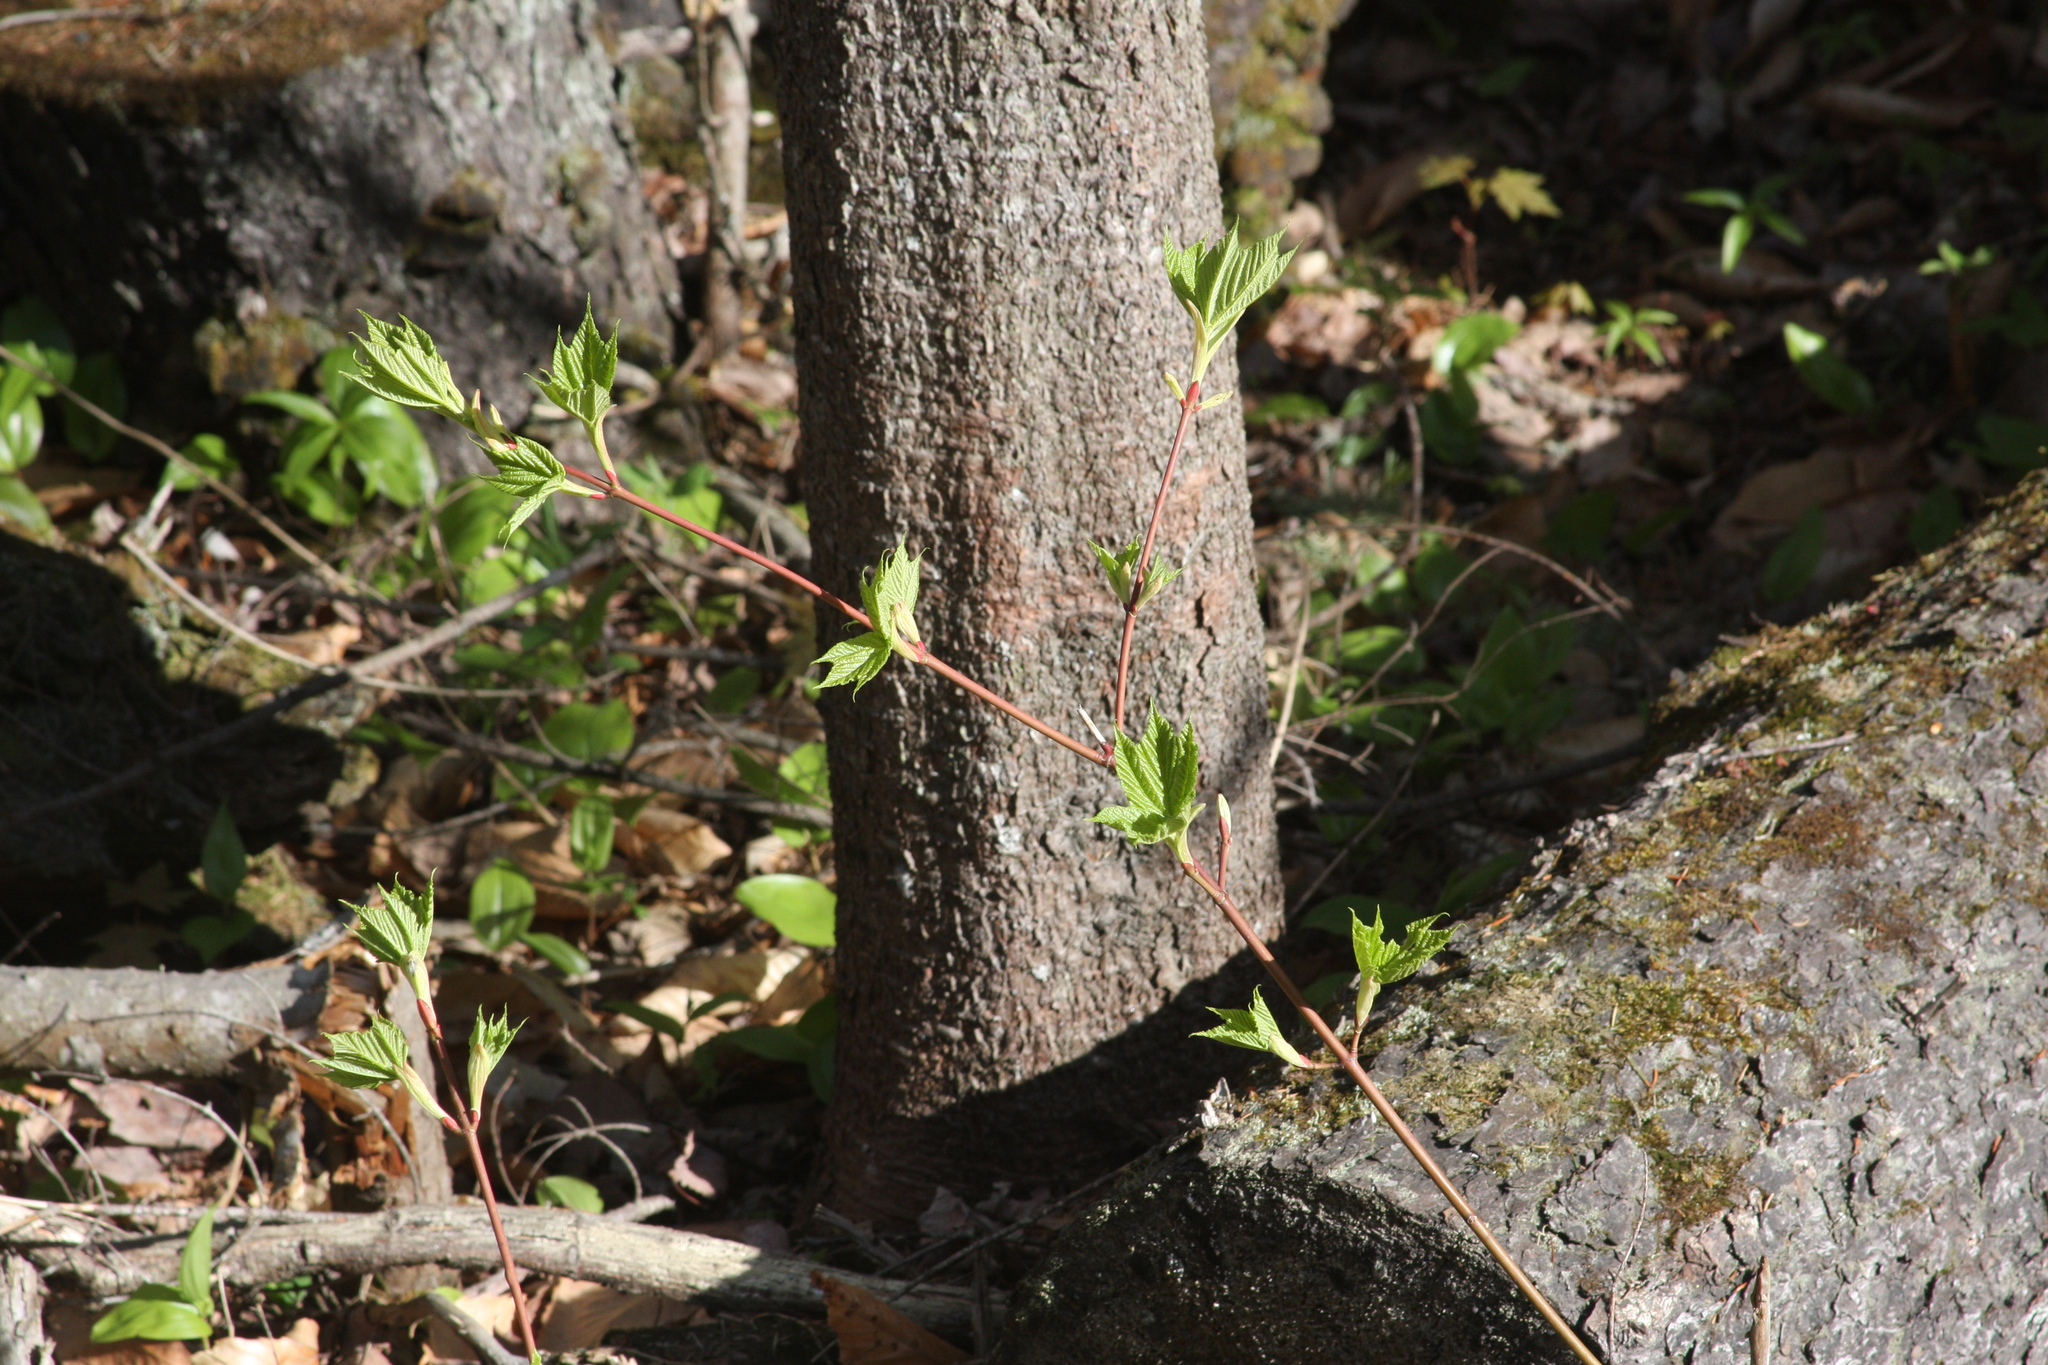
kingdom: Plantae
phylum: Tracheophyta
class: Magnoliopsida
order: Sapindales
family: Sapindaceae
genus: Acer
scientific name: Acer pensylvanicum
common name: Moosewood
